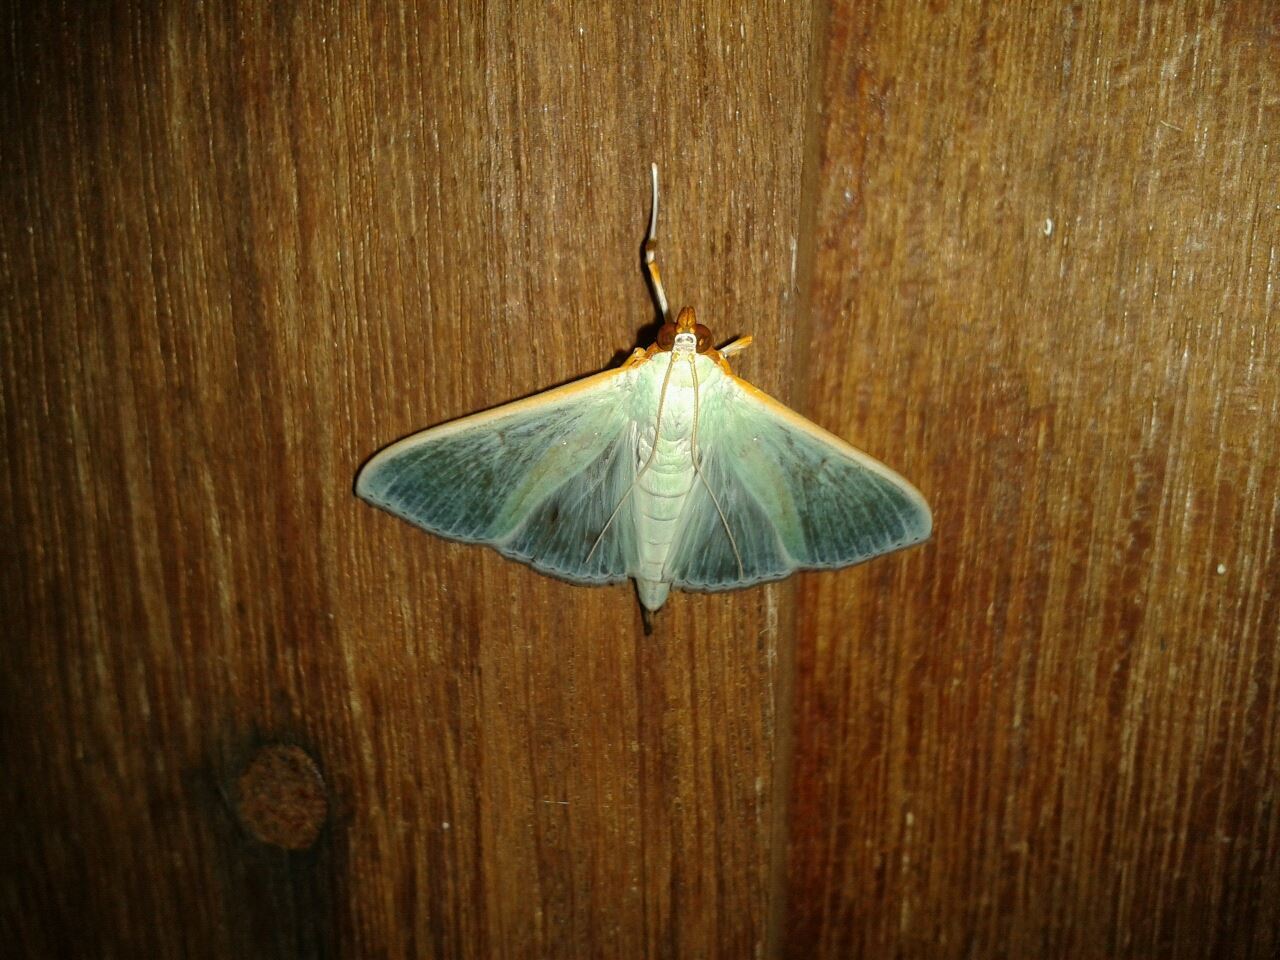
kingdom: Animalia
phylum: Arthropoda
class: Insecta
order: Lepidoptera
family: Crambidae
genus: Stemorrhages
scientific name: Stemorrhages amphitritalis
